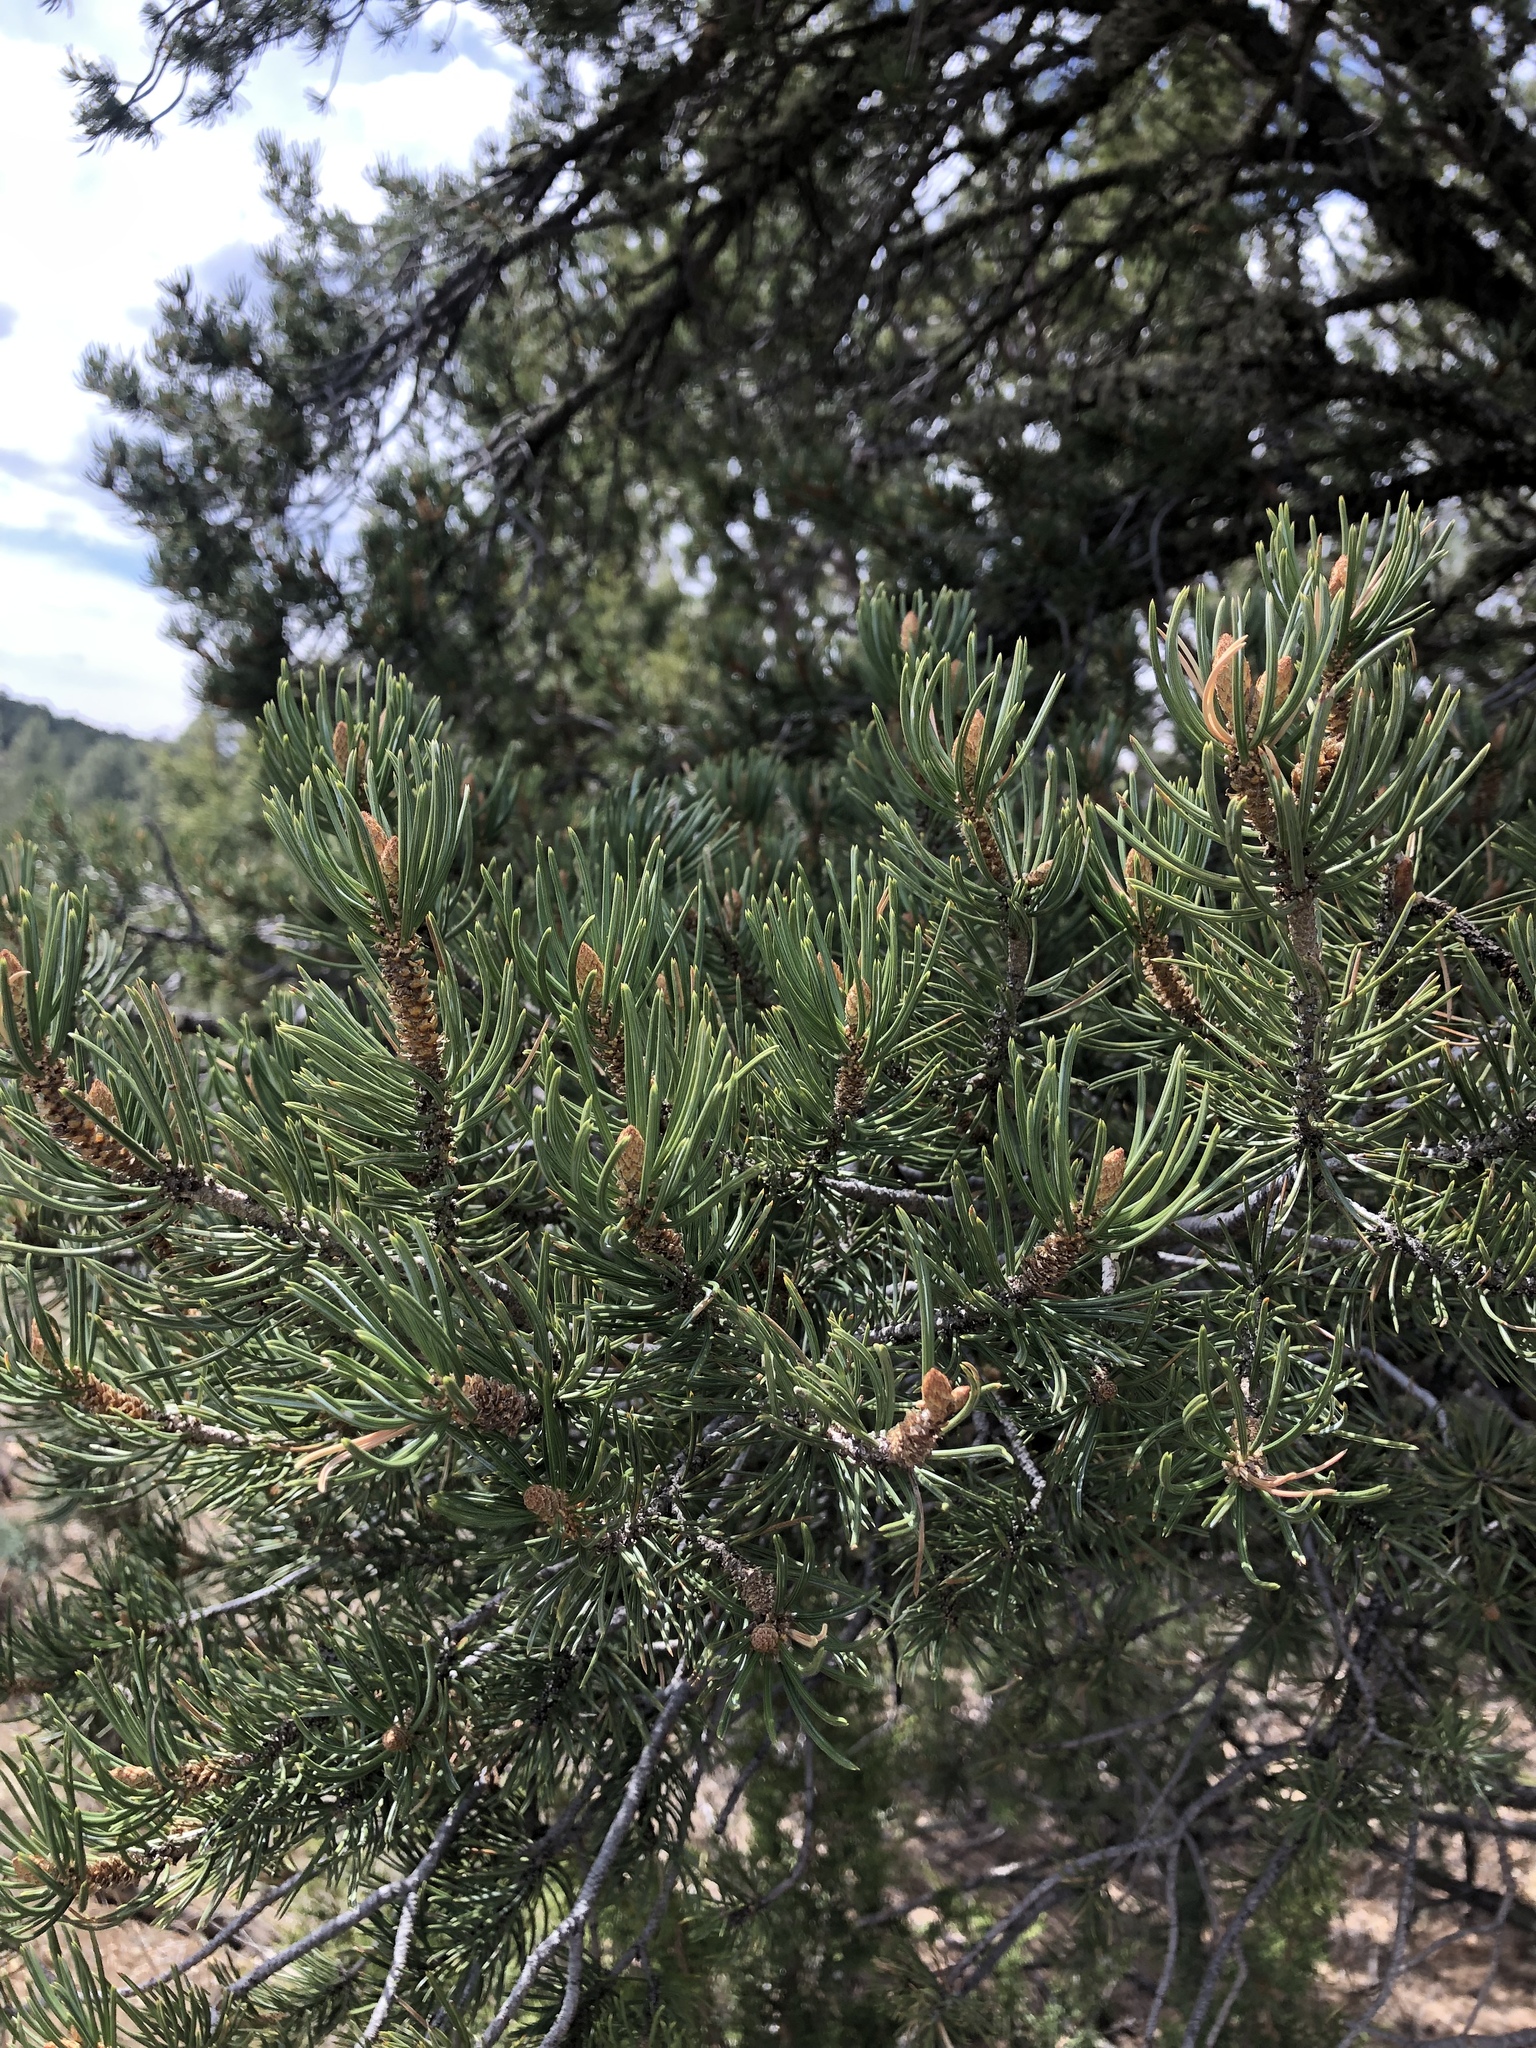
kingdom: Plantae
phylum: Tracheophyta
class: Pinopsida
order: Pinales
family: Pinaceae
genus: Pinus
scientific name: Pinus edulis
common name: Colorado pinyon
